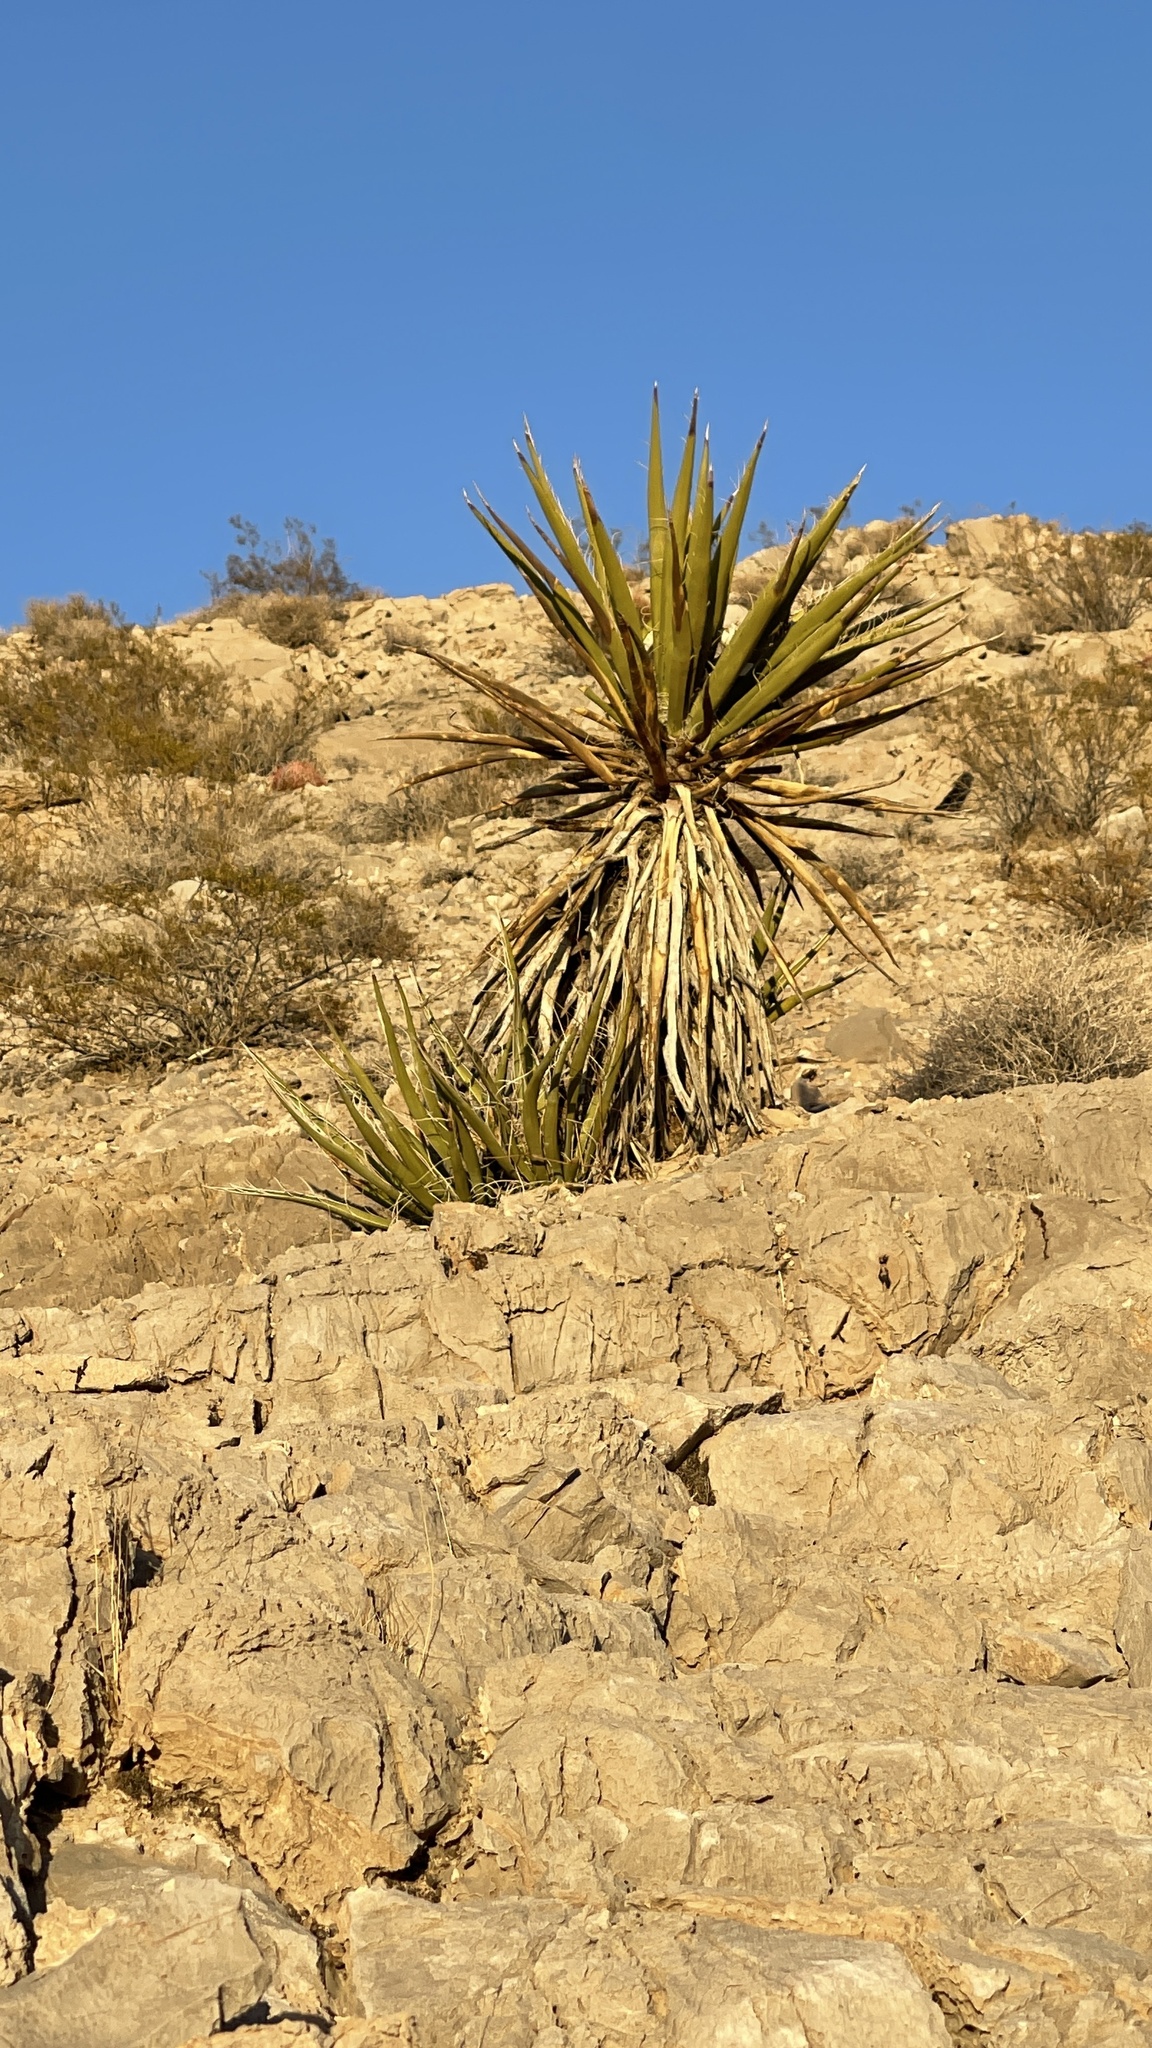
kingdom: Plantae
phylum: Tracheophyta
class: Liliopsida
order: Asparagales
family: Asparagaceae
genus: Yucca
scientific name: Yucca schidigera
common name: Mojave yucca
